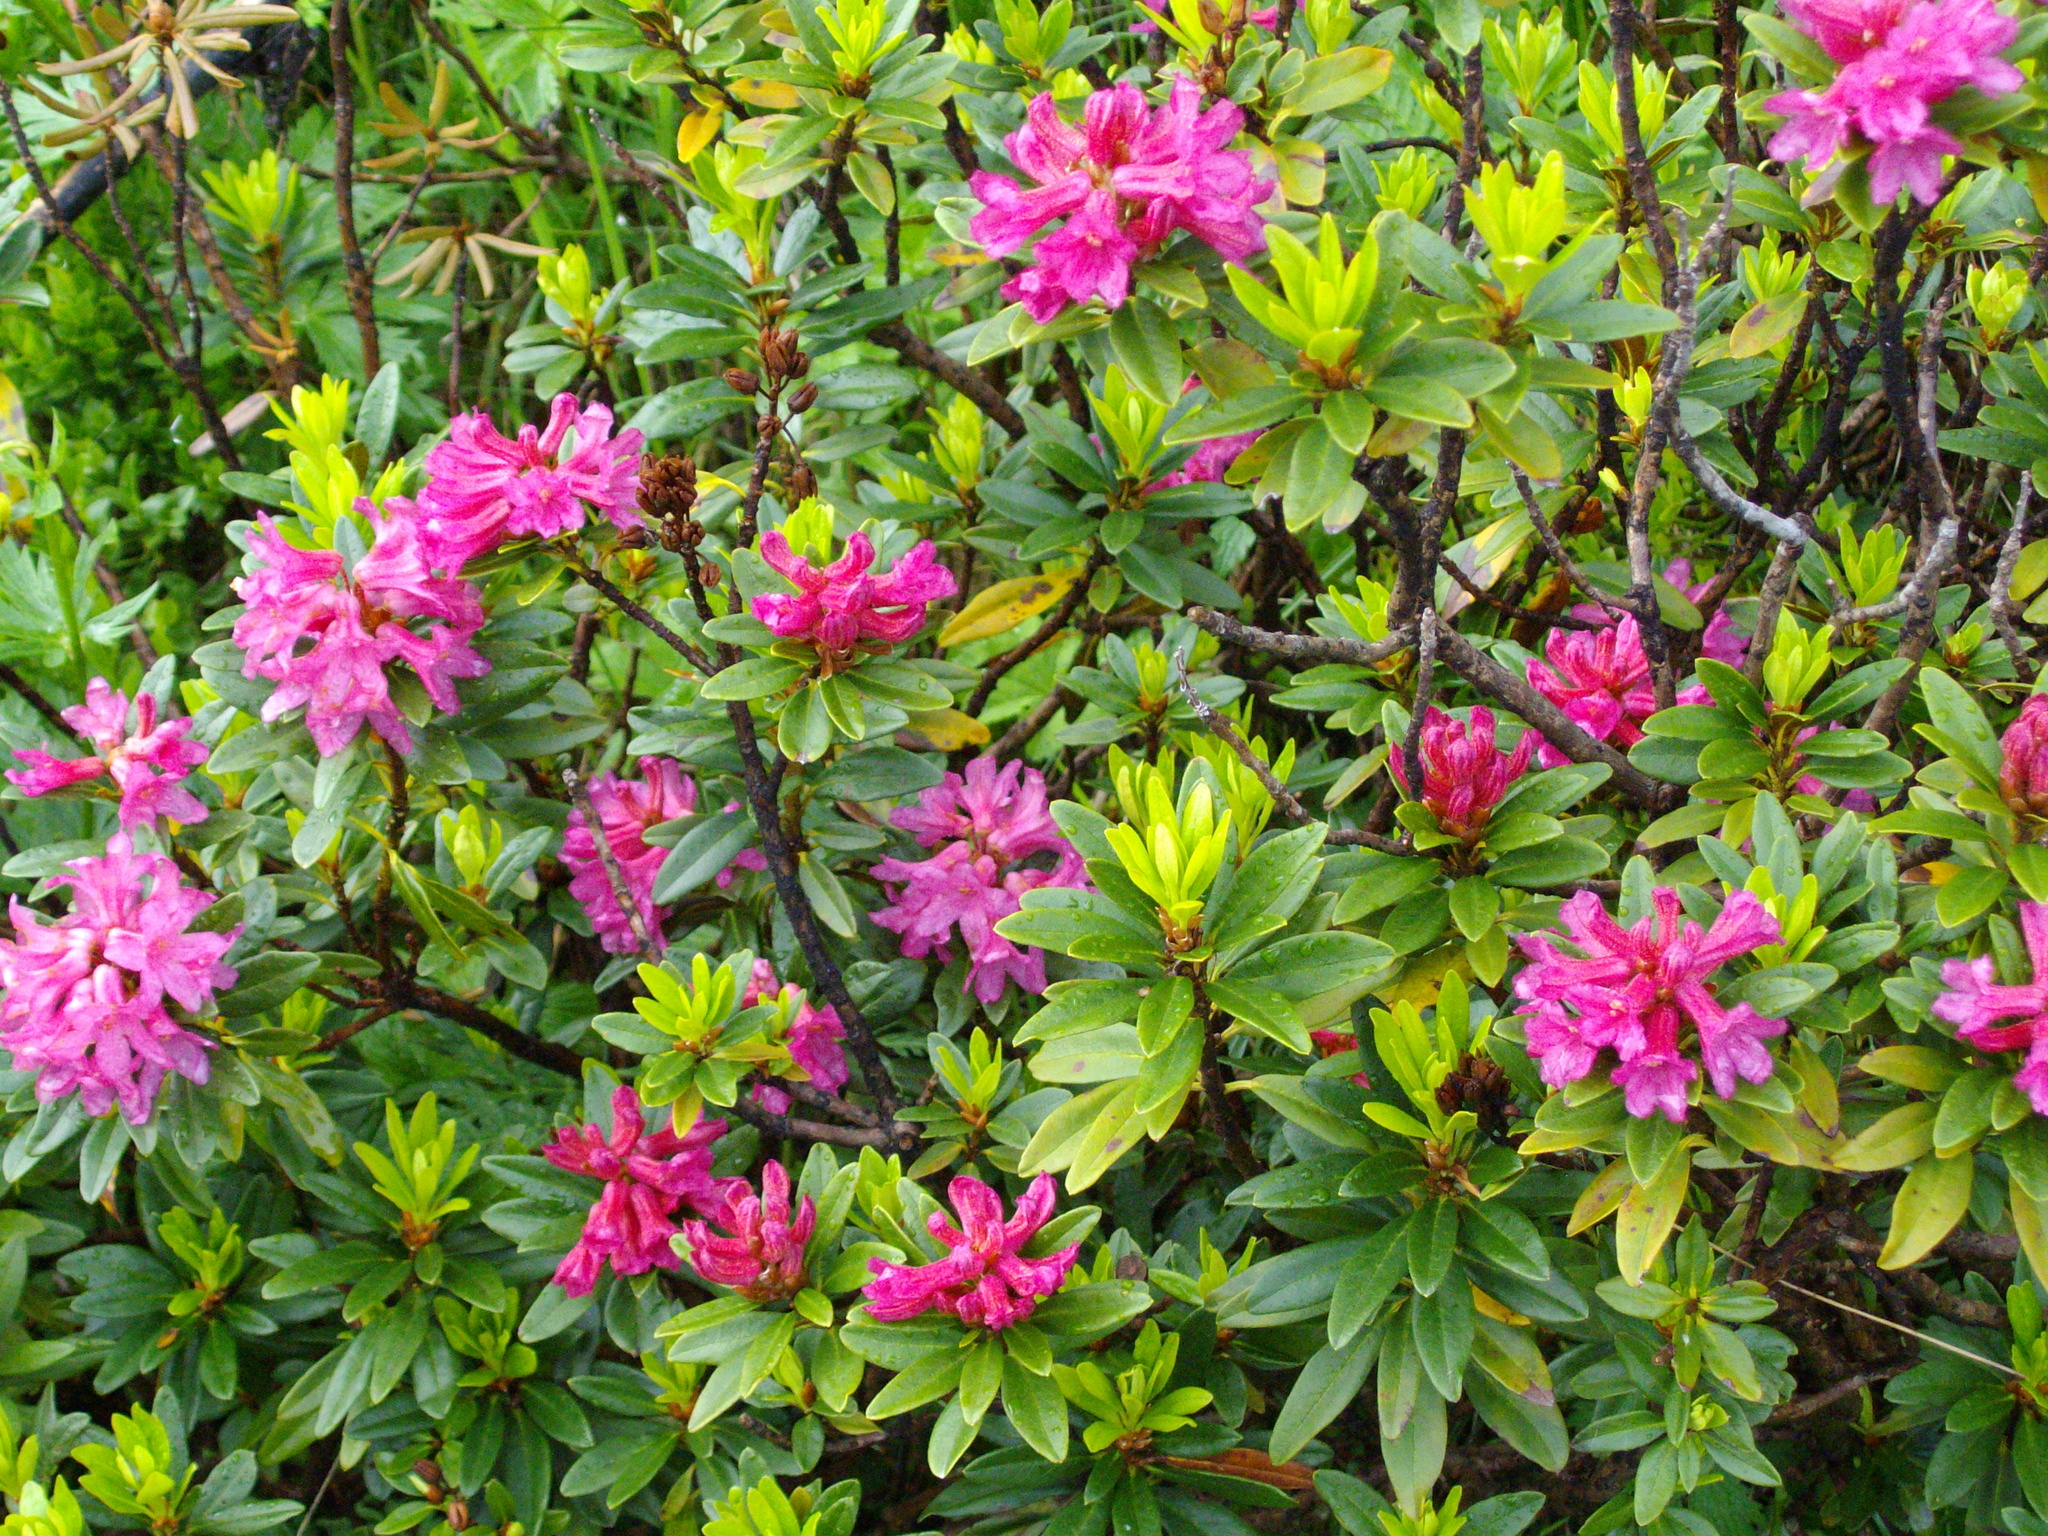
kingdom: Plantae
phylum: Tracheophyta
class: Magnoliopsida
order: Ericales
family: Ericaceae
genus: Rhododendron
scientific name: Rhododendron ferrugineum
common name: Alpenrose
